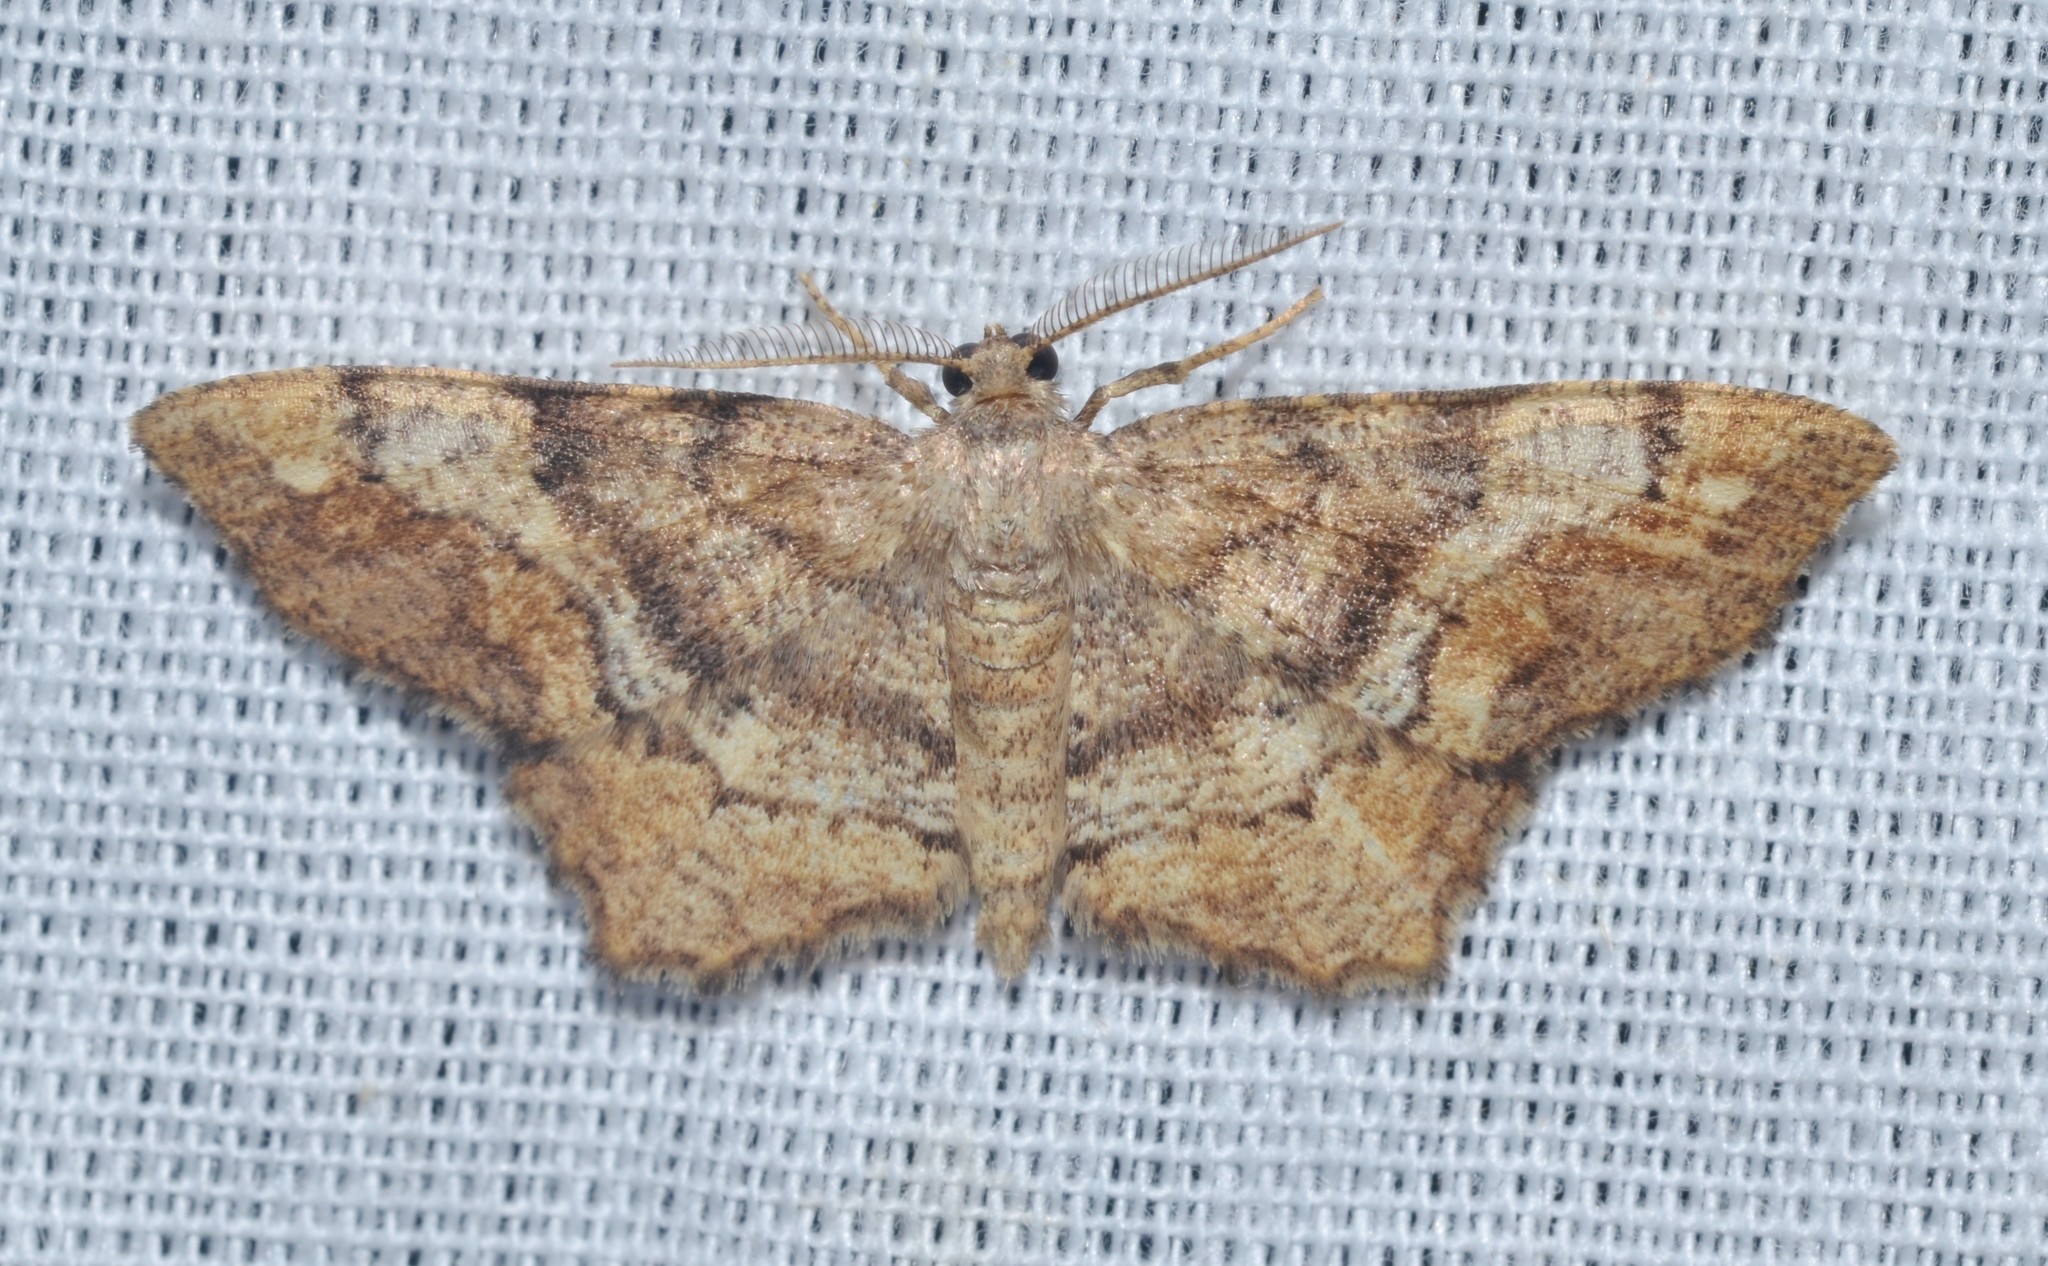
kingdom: Animalia
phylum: Arthropoda
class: Insecta
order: Lepidoptera
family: Geometridae
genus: Hypagyrtis
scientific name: Hypagyrtis unipunctata
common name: One-spotted variant
